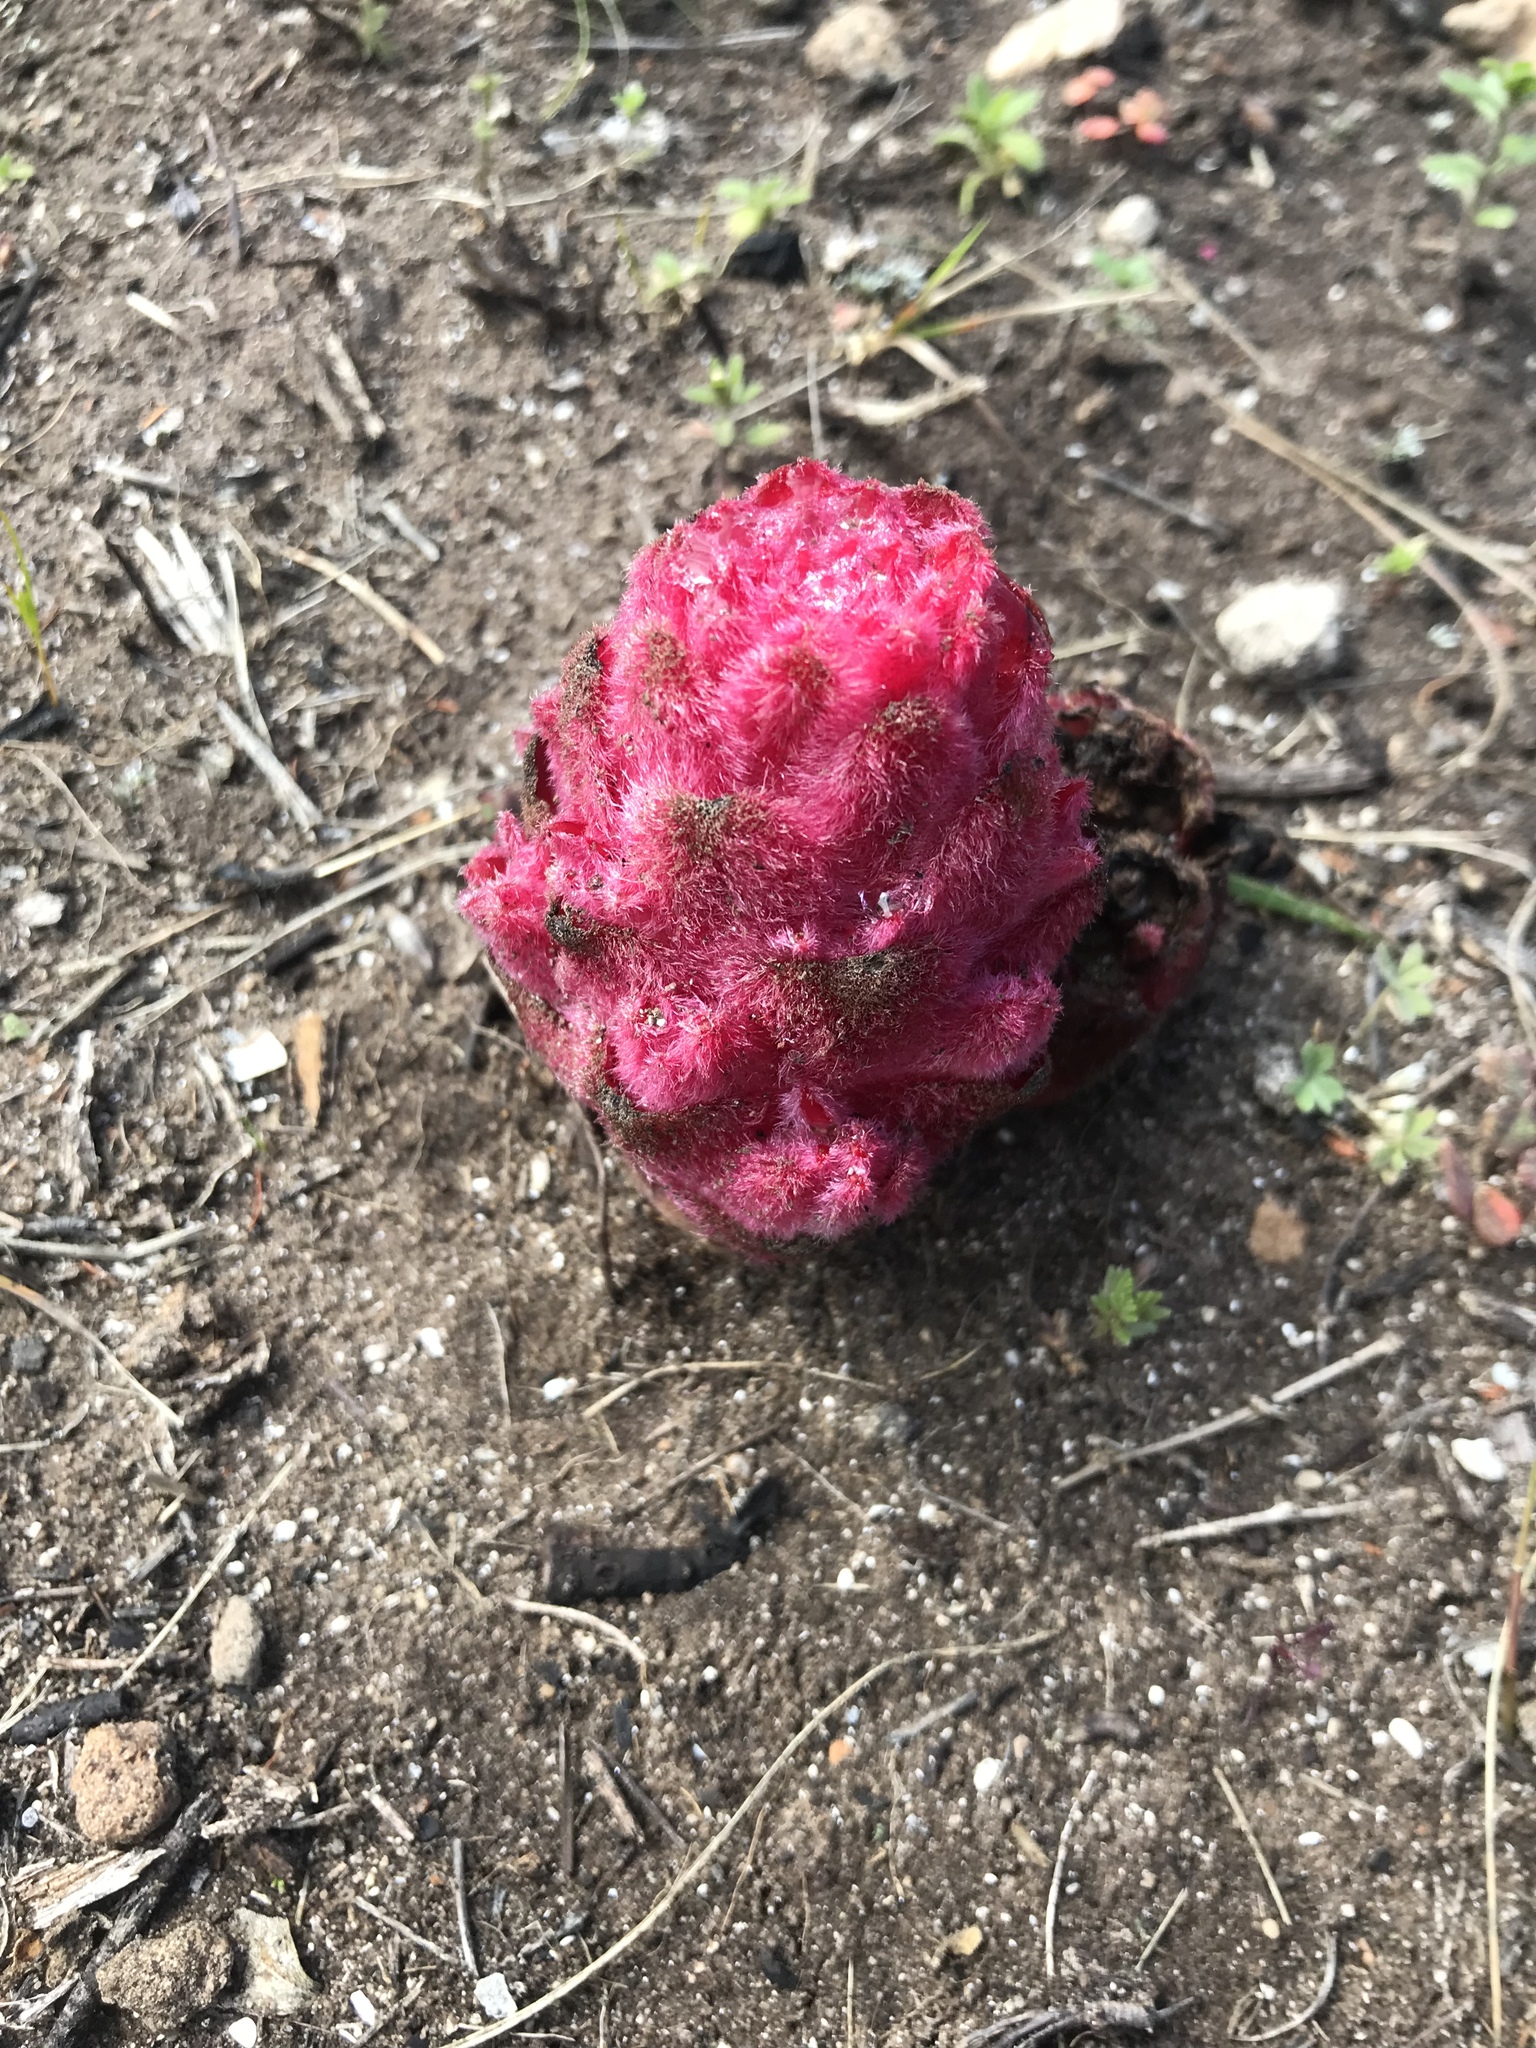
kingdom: Plantae
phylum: Tracheophyta
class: Magnoliopsida
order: Lamiales
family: Orobanchaceae
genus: Hyobanche
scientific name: Hyobanche sanguinea
